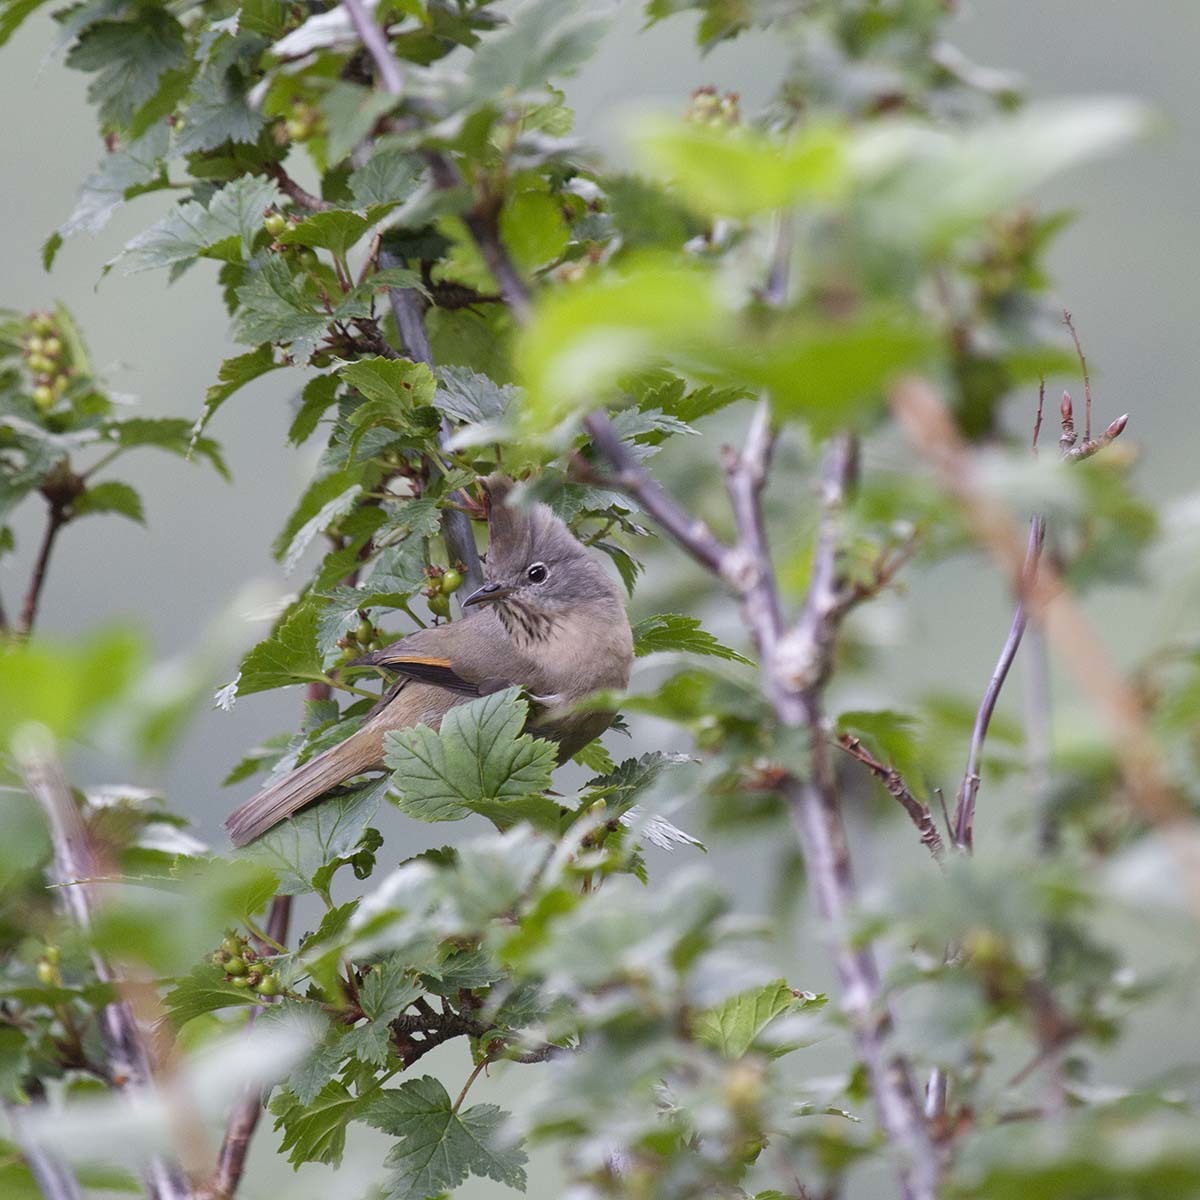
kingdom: Animalia
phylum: Chordata
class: Aves
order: Passeriformes
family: Zosteropidae
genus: Yuhina
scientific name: Yuhina gularis
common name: Stripe-throated yuhina
